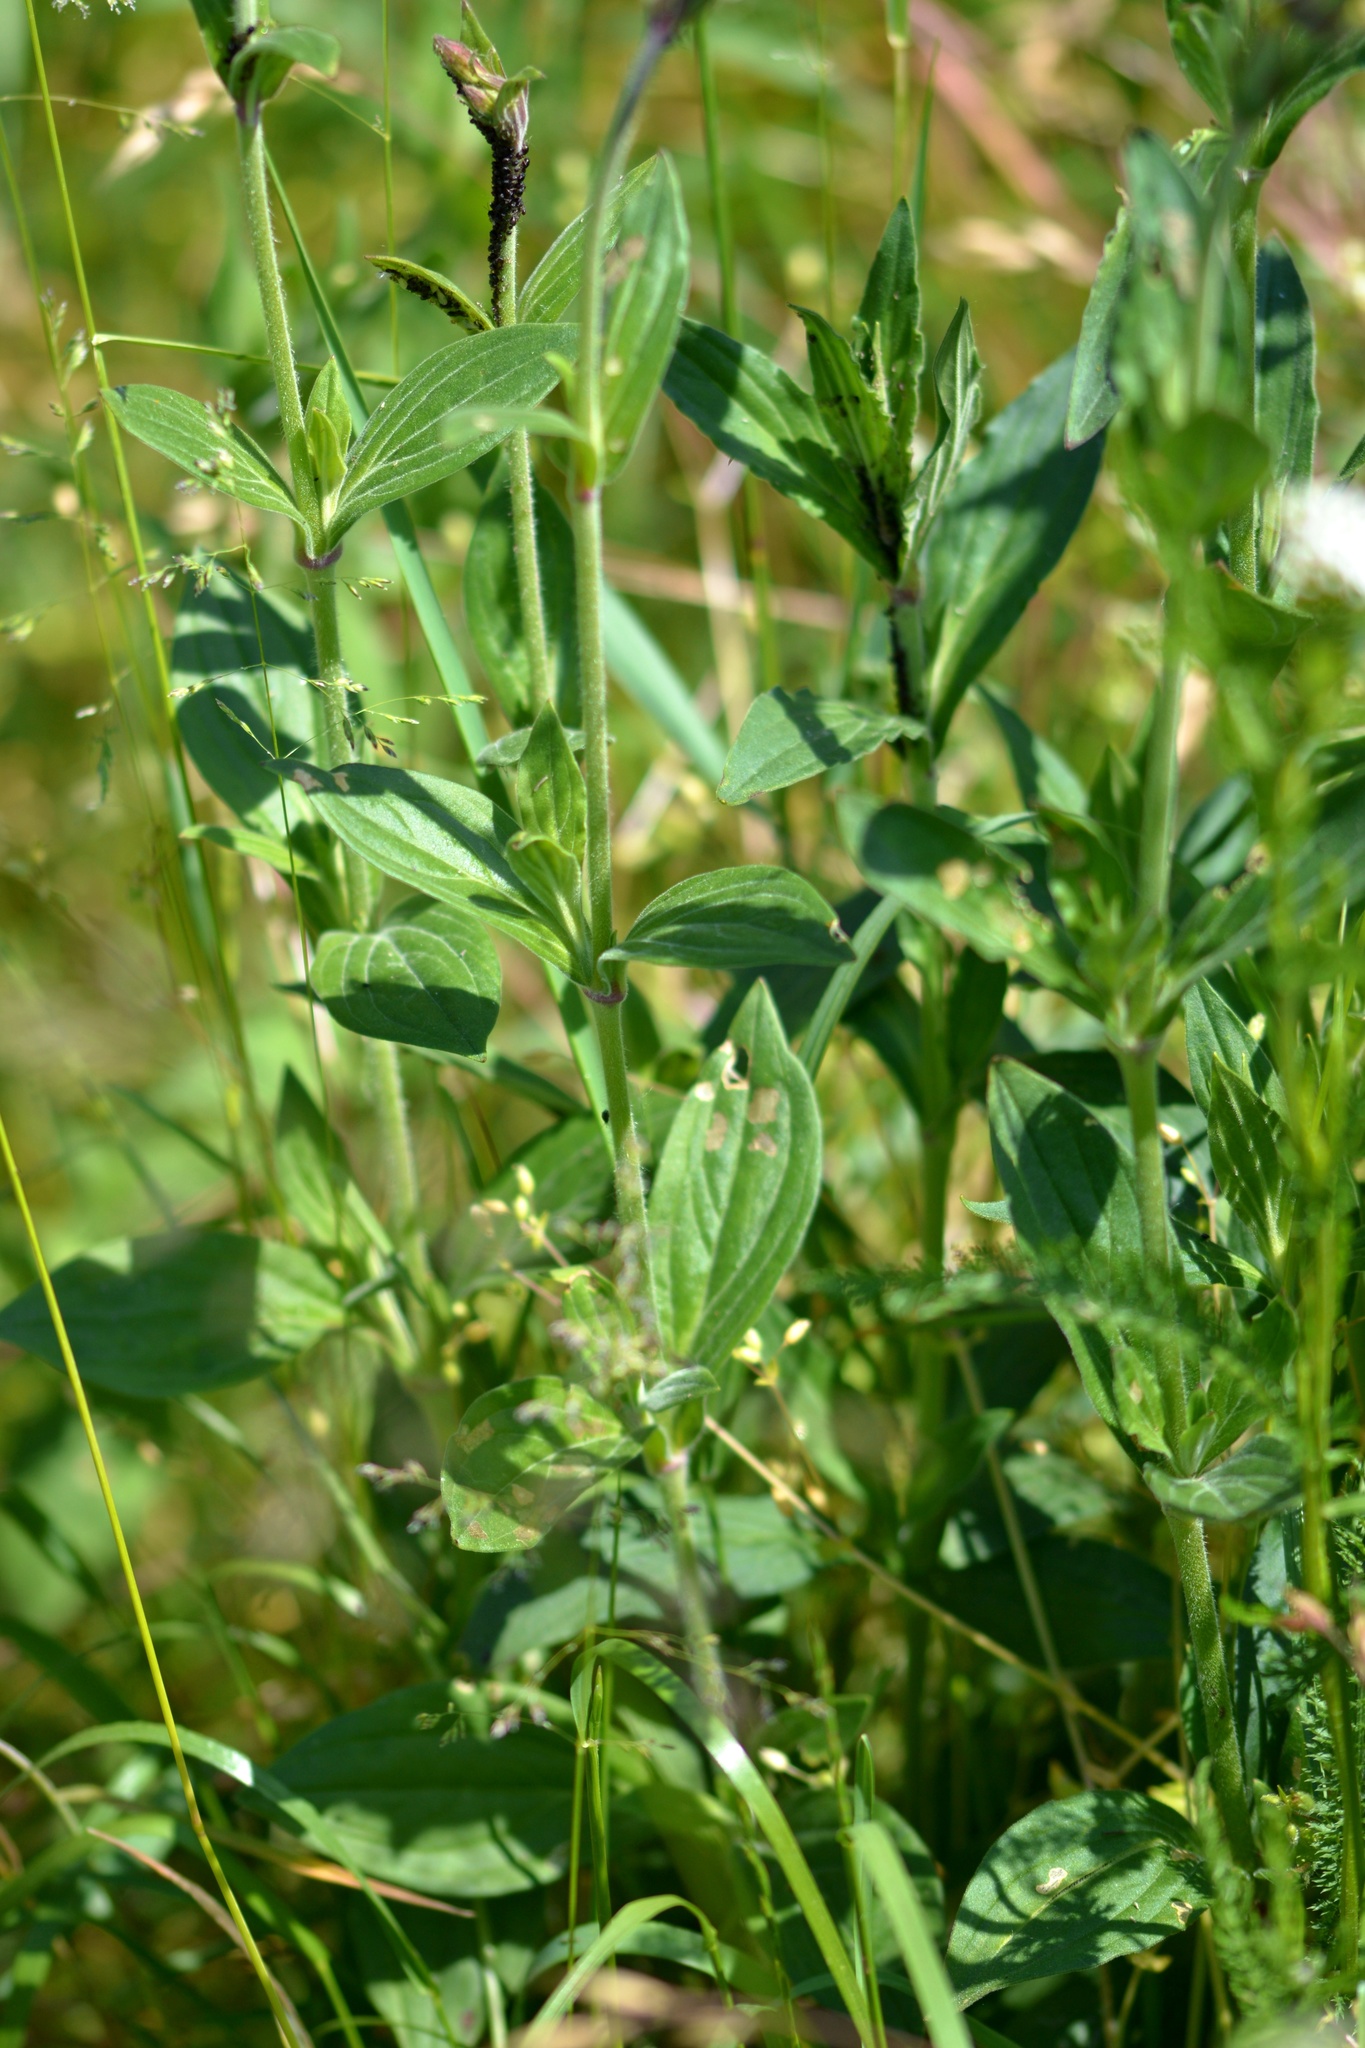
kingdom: Plantae
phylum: Tracheophyta
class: Magnoliopsida
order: Caryophyllales
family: Caryophyllaceae
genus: Silene
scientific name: Silene latifolia
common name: White campion
